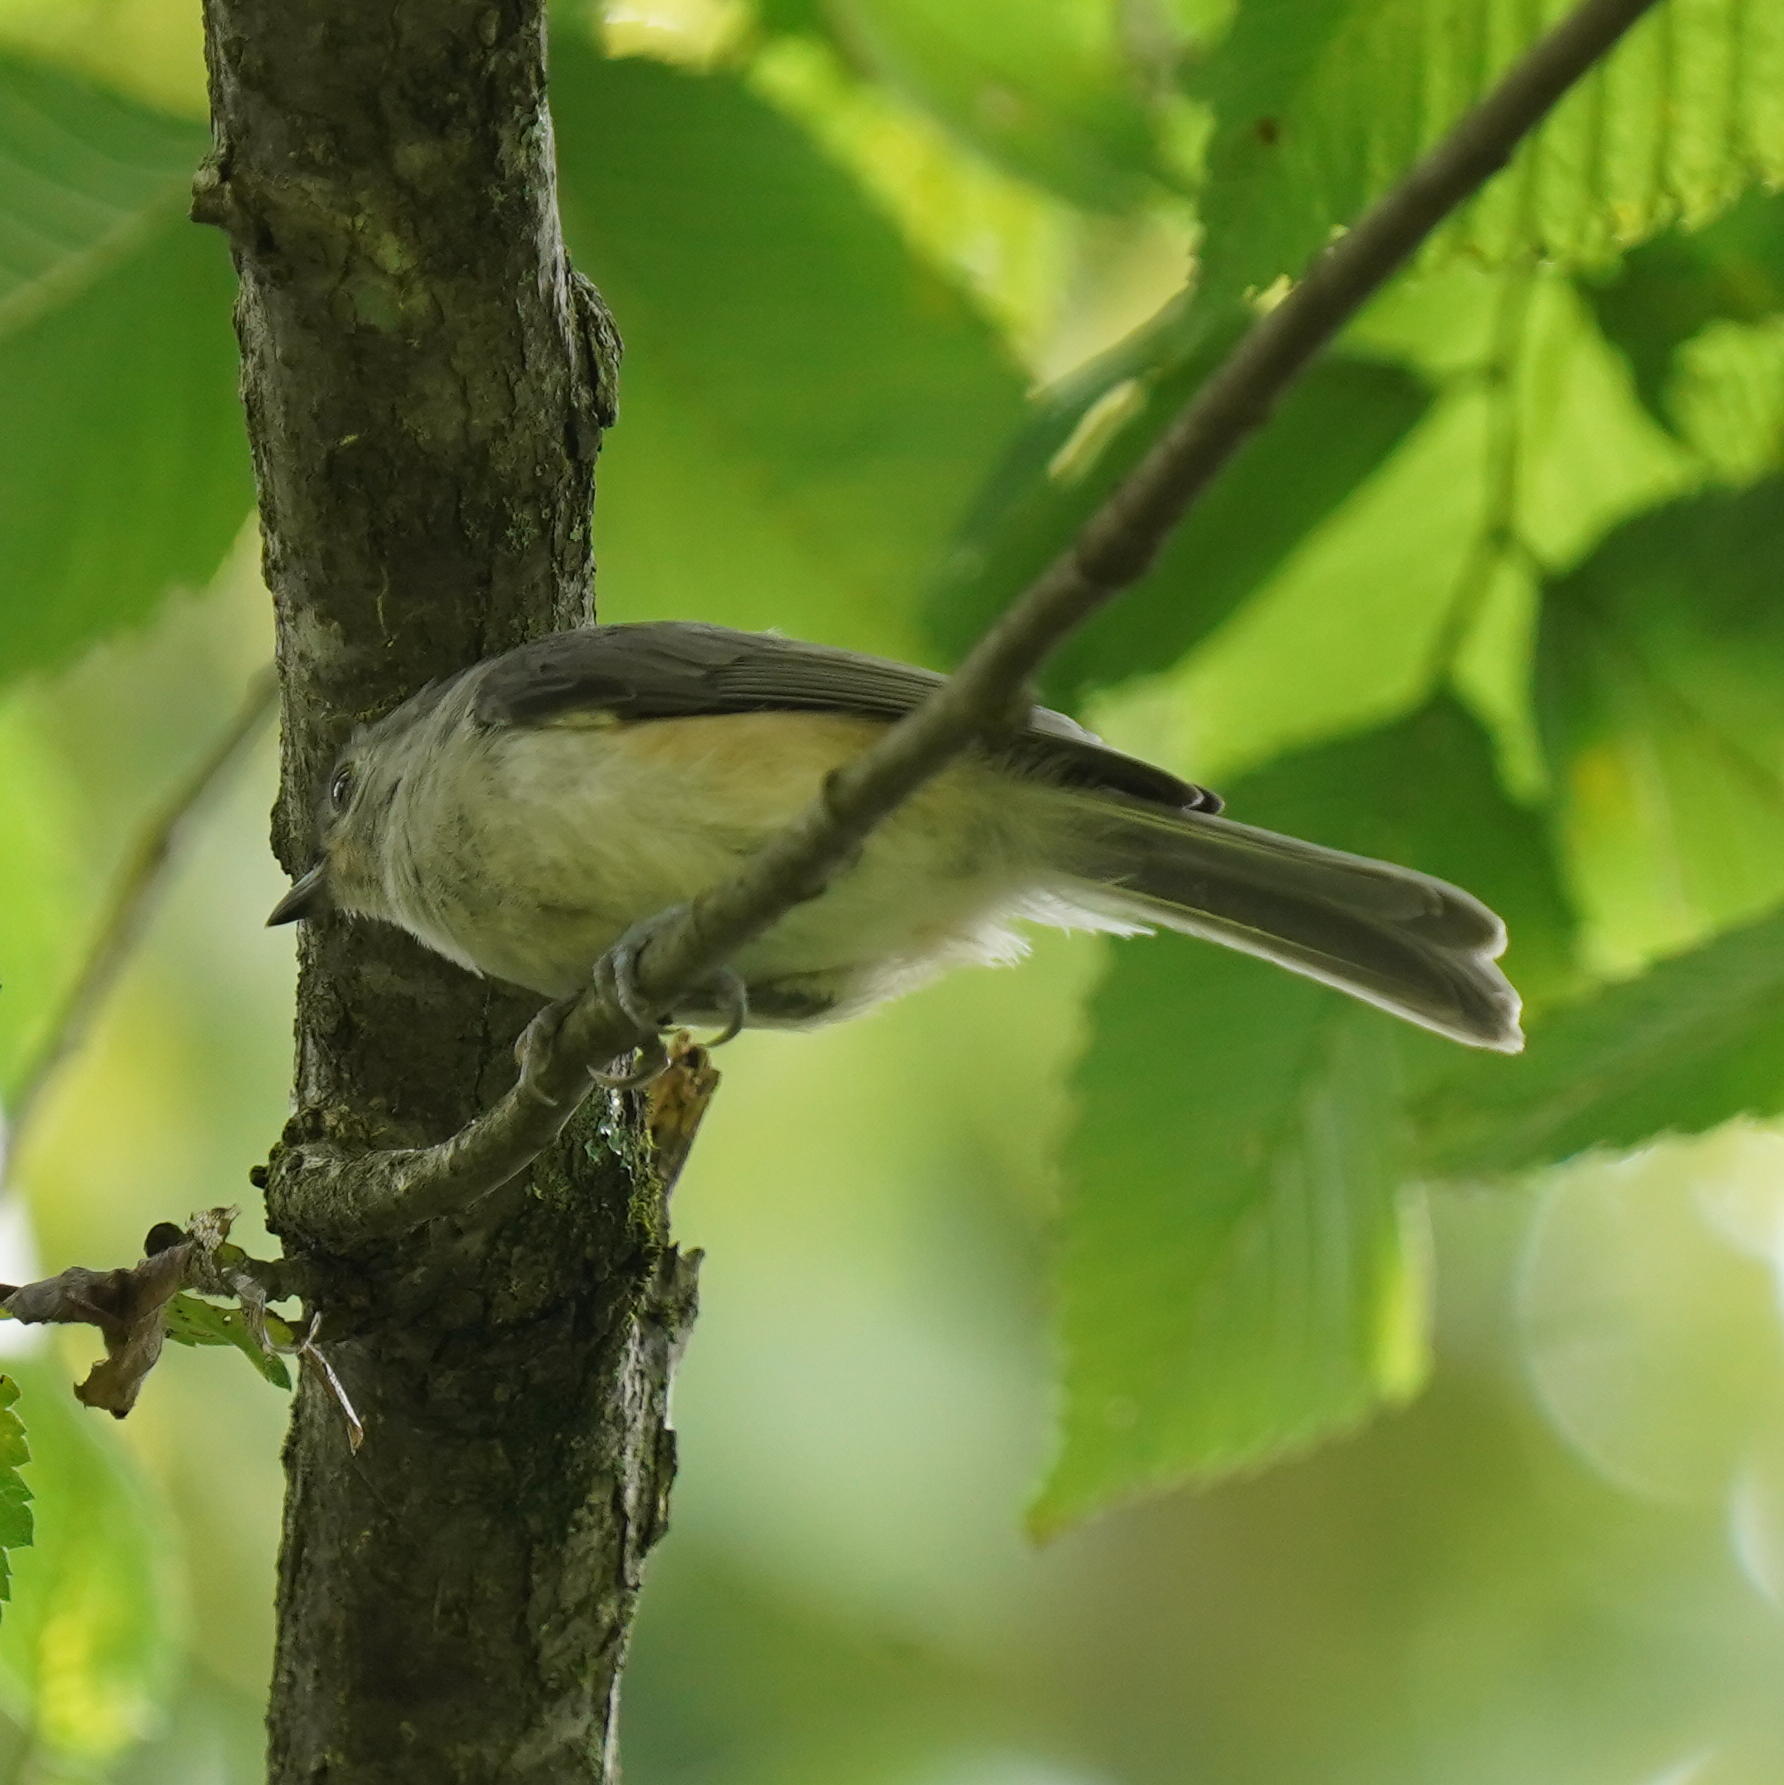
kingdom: Animalia
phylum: Chordata
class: Aves
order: Passeriformes
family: Paridae
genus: Baeolophus
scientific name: Baeolophus bicolor
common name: Tufted titmouse
